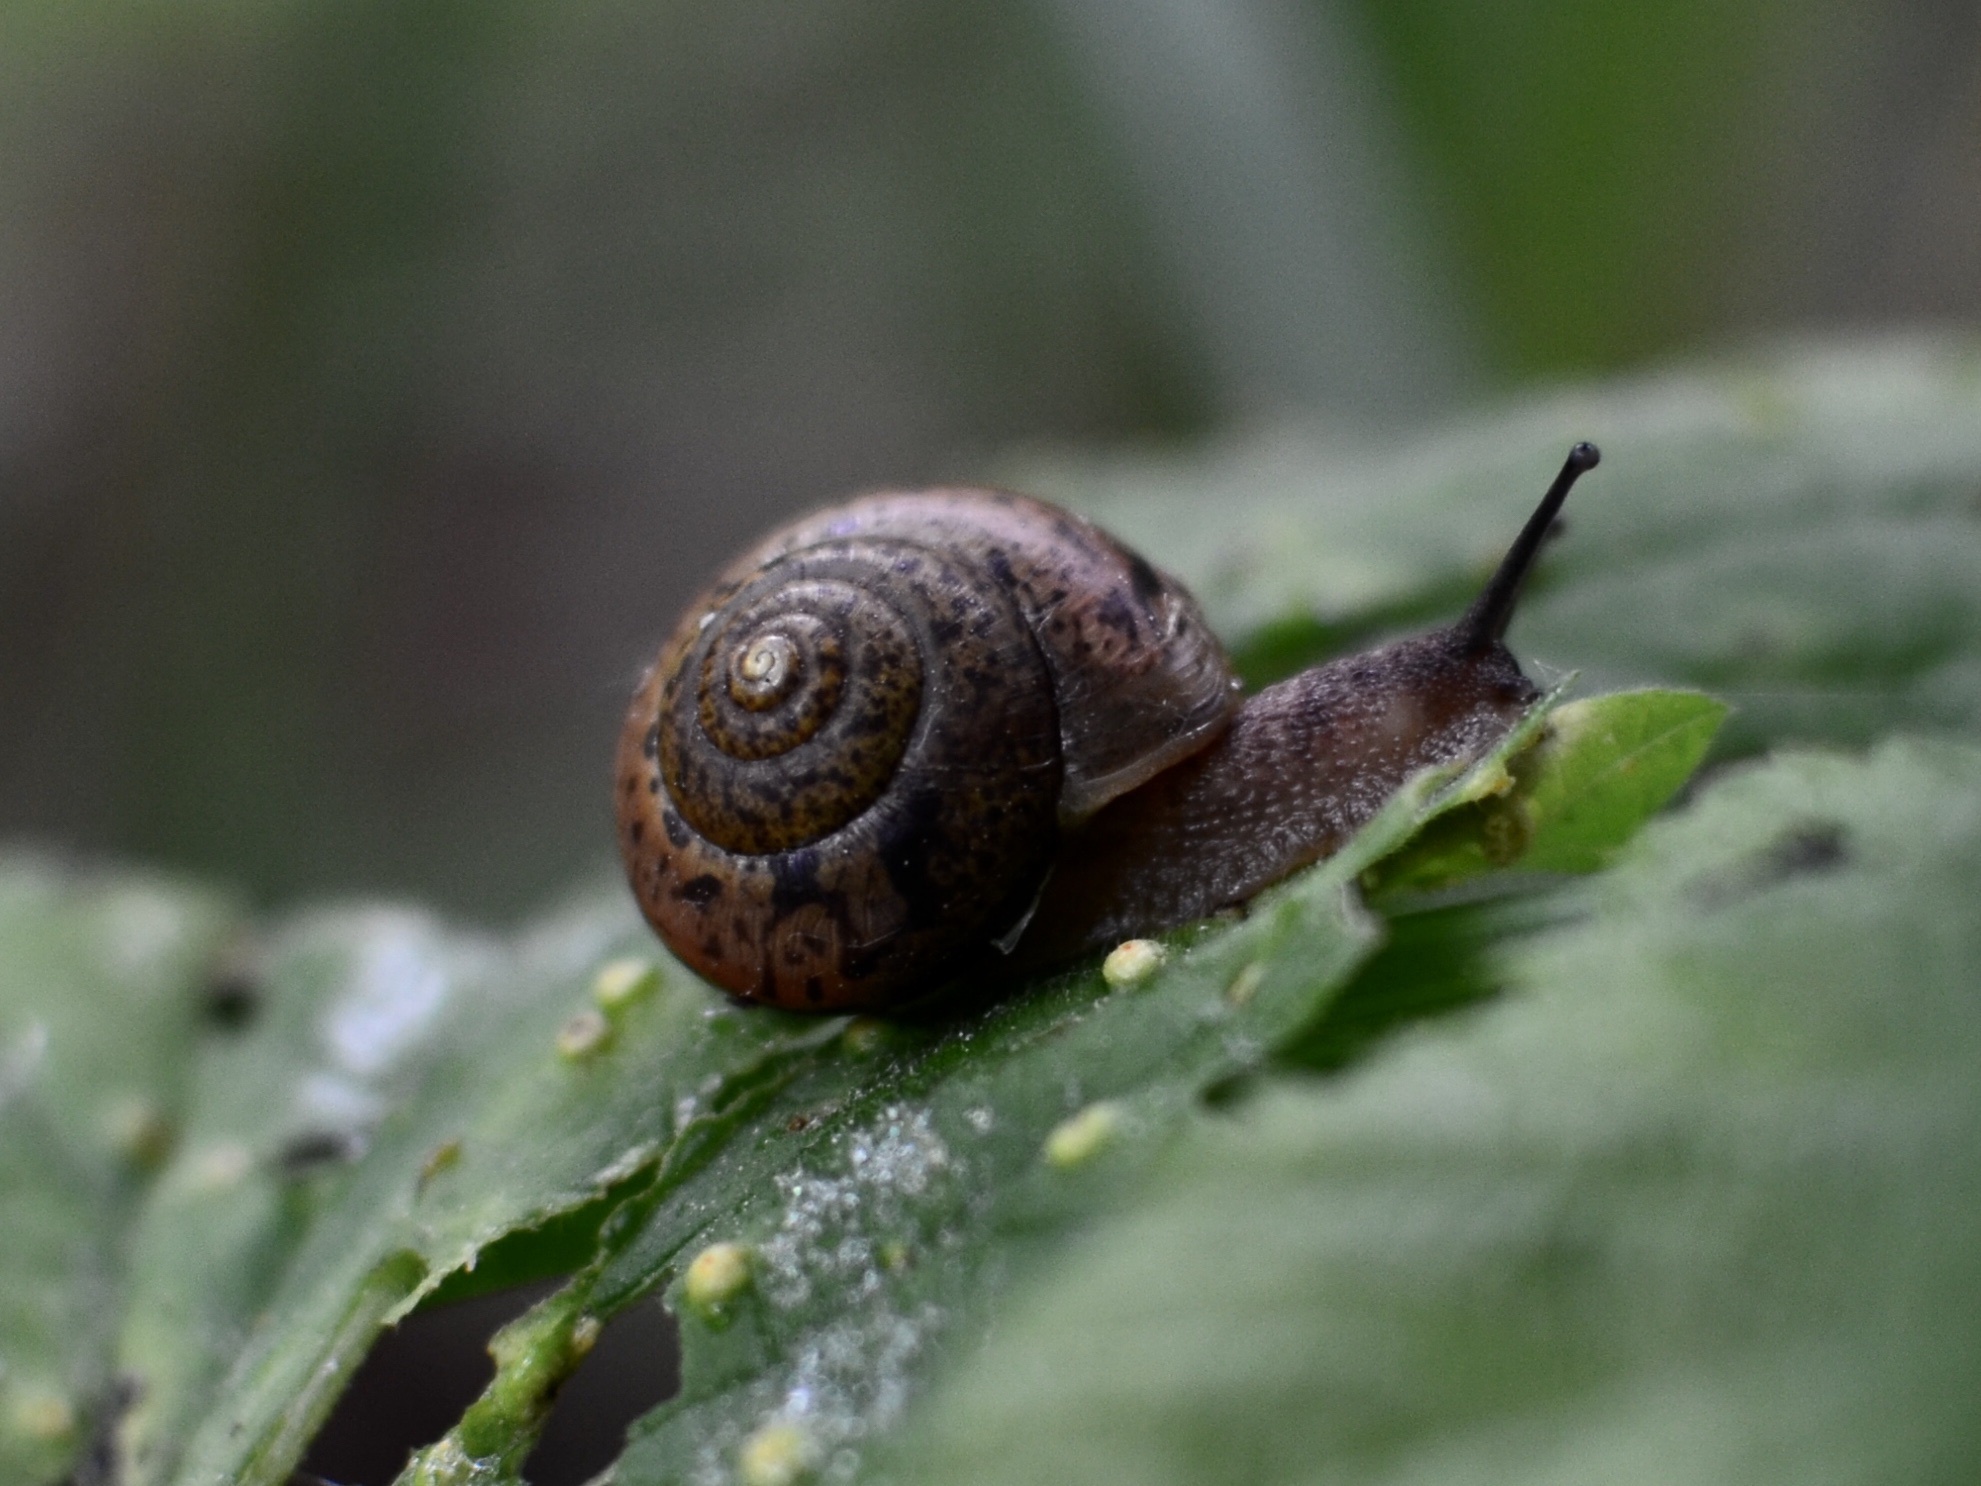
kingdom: Animalia
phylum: Mollusca
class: Gastropoda
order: Stylommatophora
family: Camaenidae
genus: Fruticicola
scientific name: Fruticicola fruticum
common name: Bush snail
